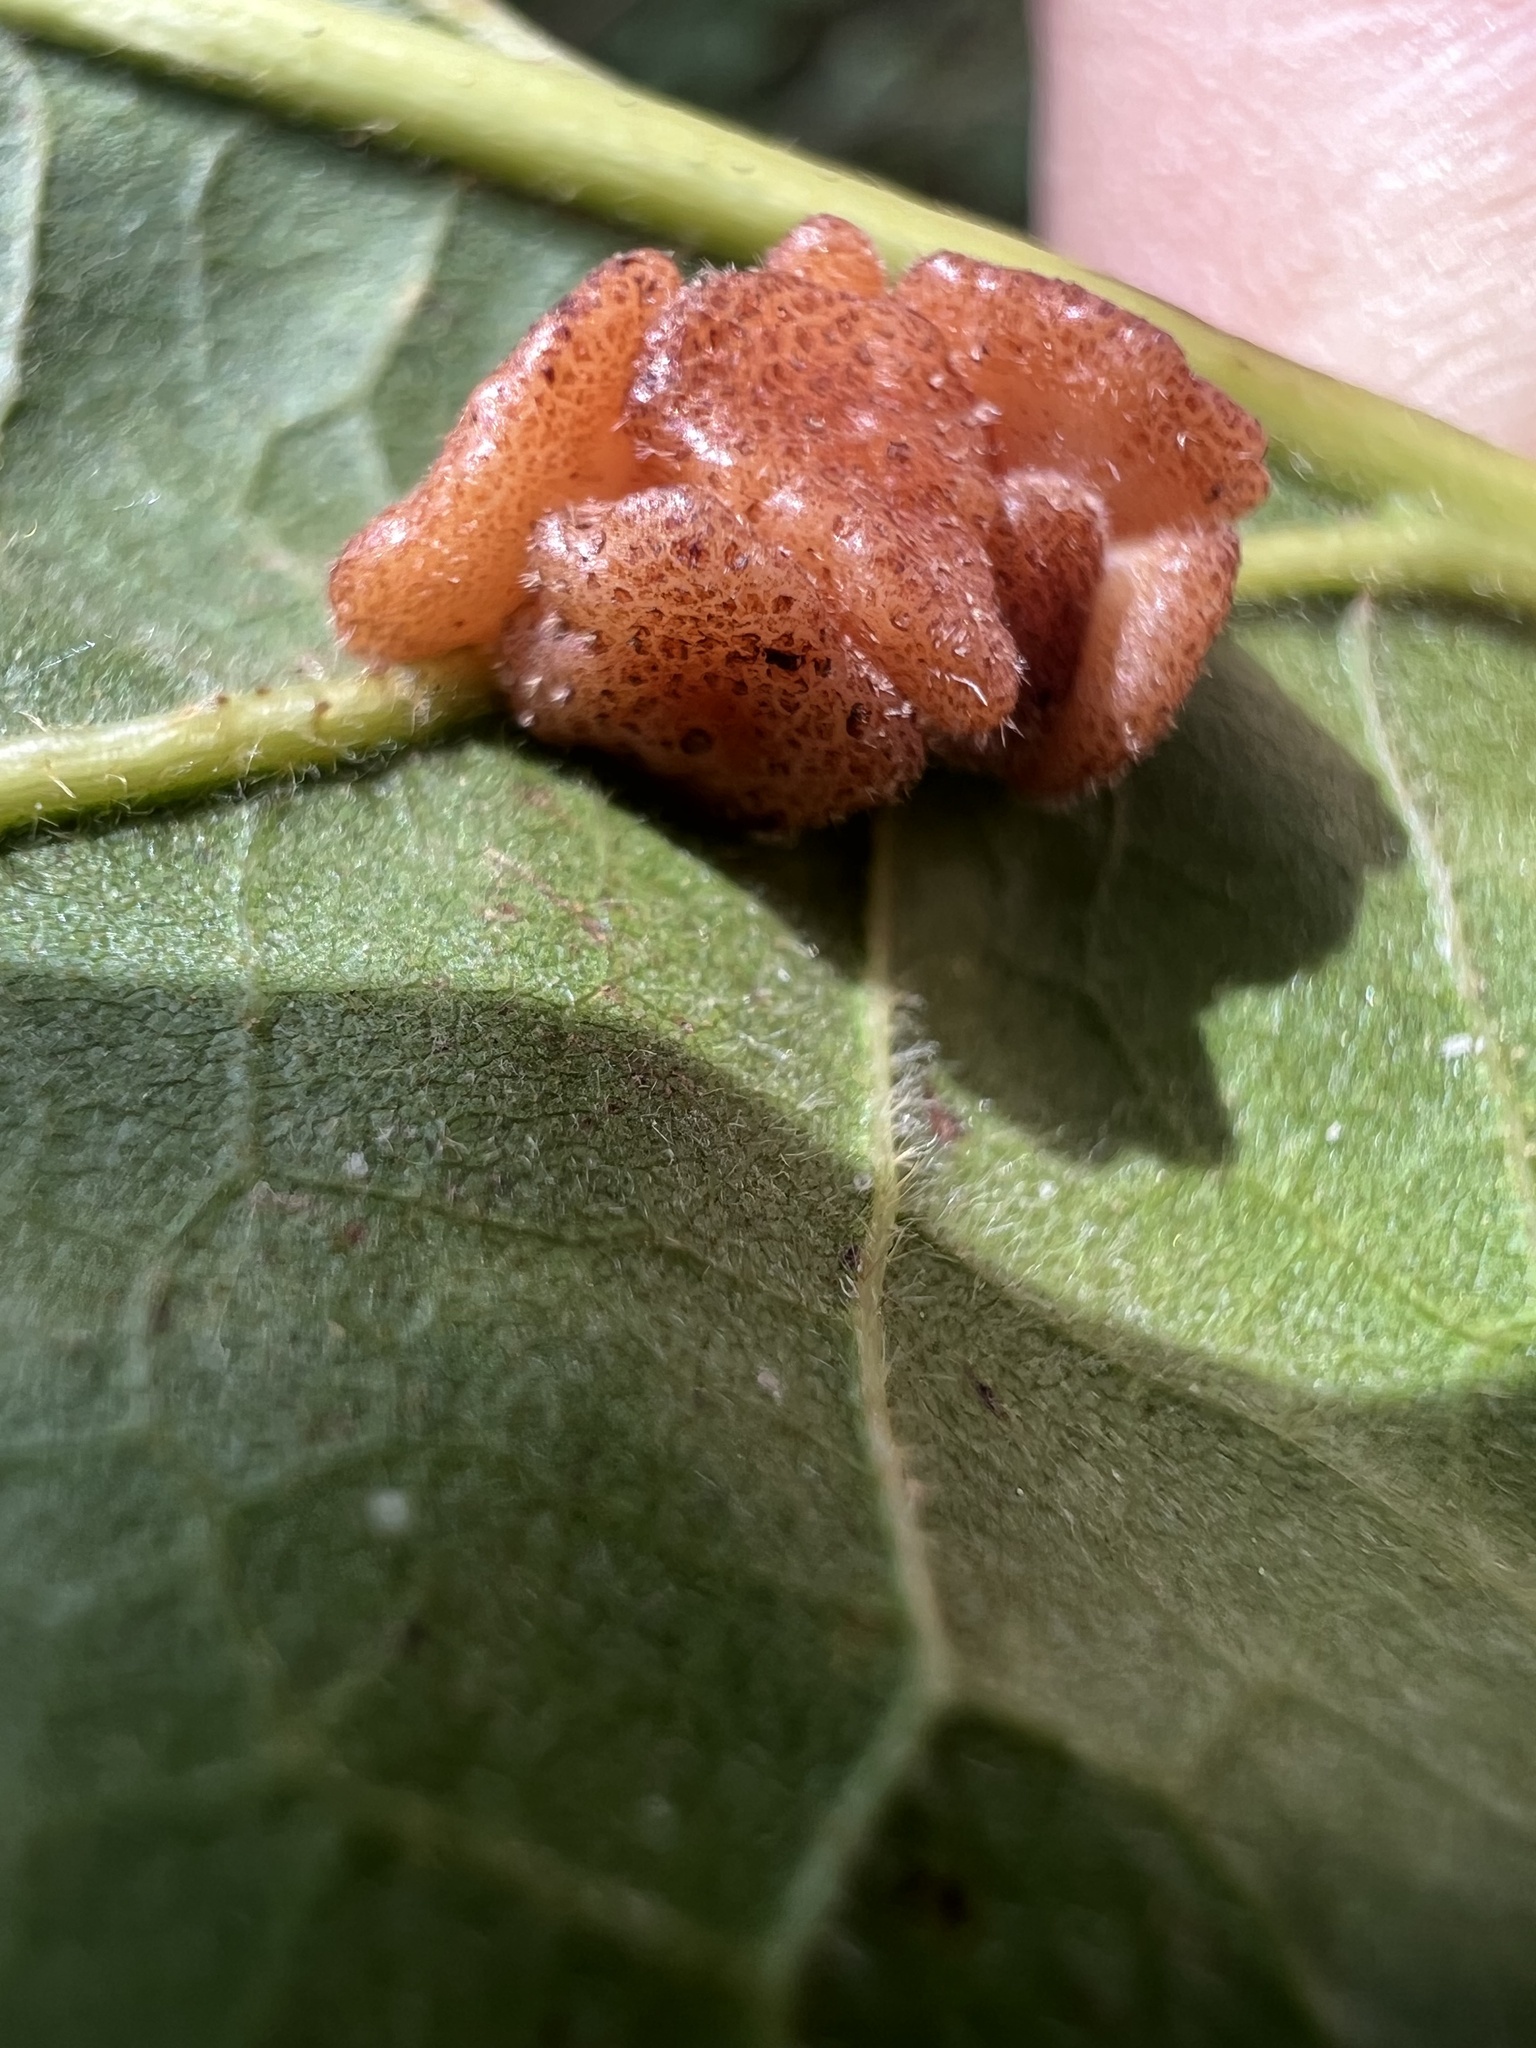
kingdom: Animalia
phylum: Arthropoda
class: Insecta
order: Hymenoptera
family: Cynipidae
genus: Andricus
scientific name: Andricus
